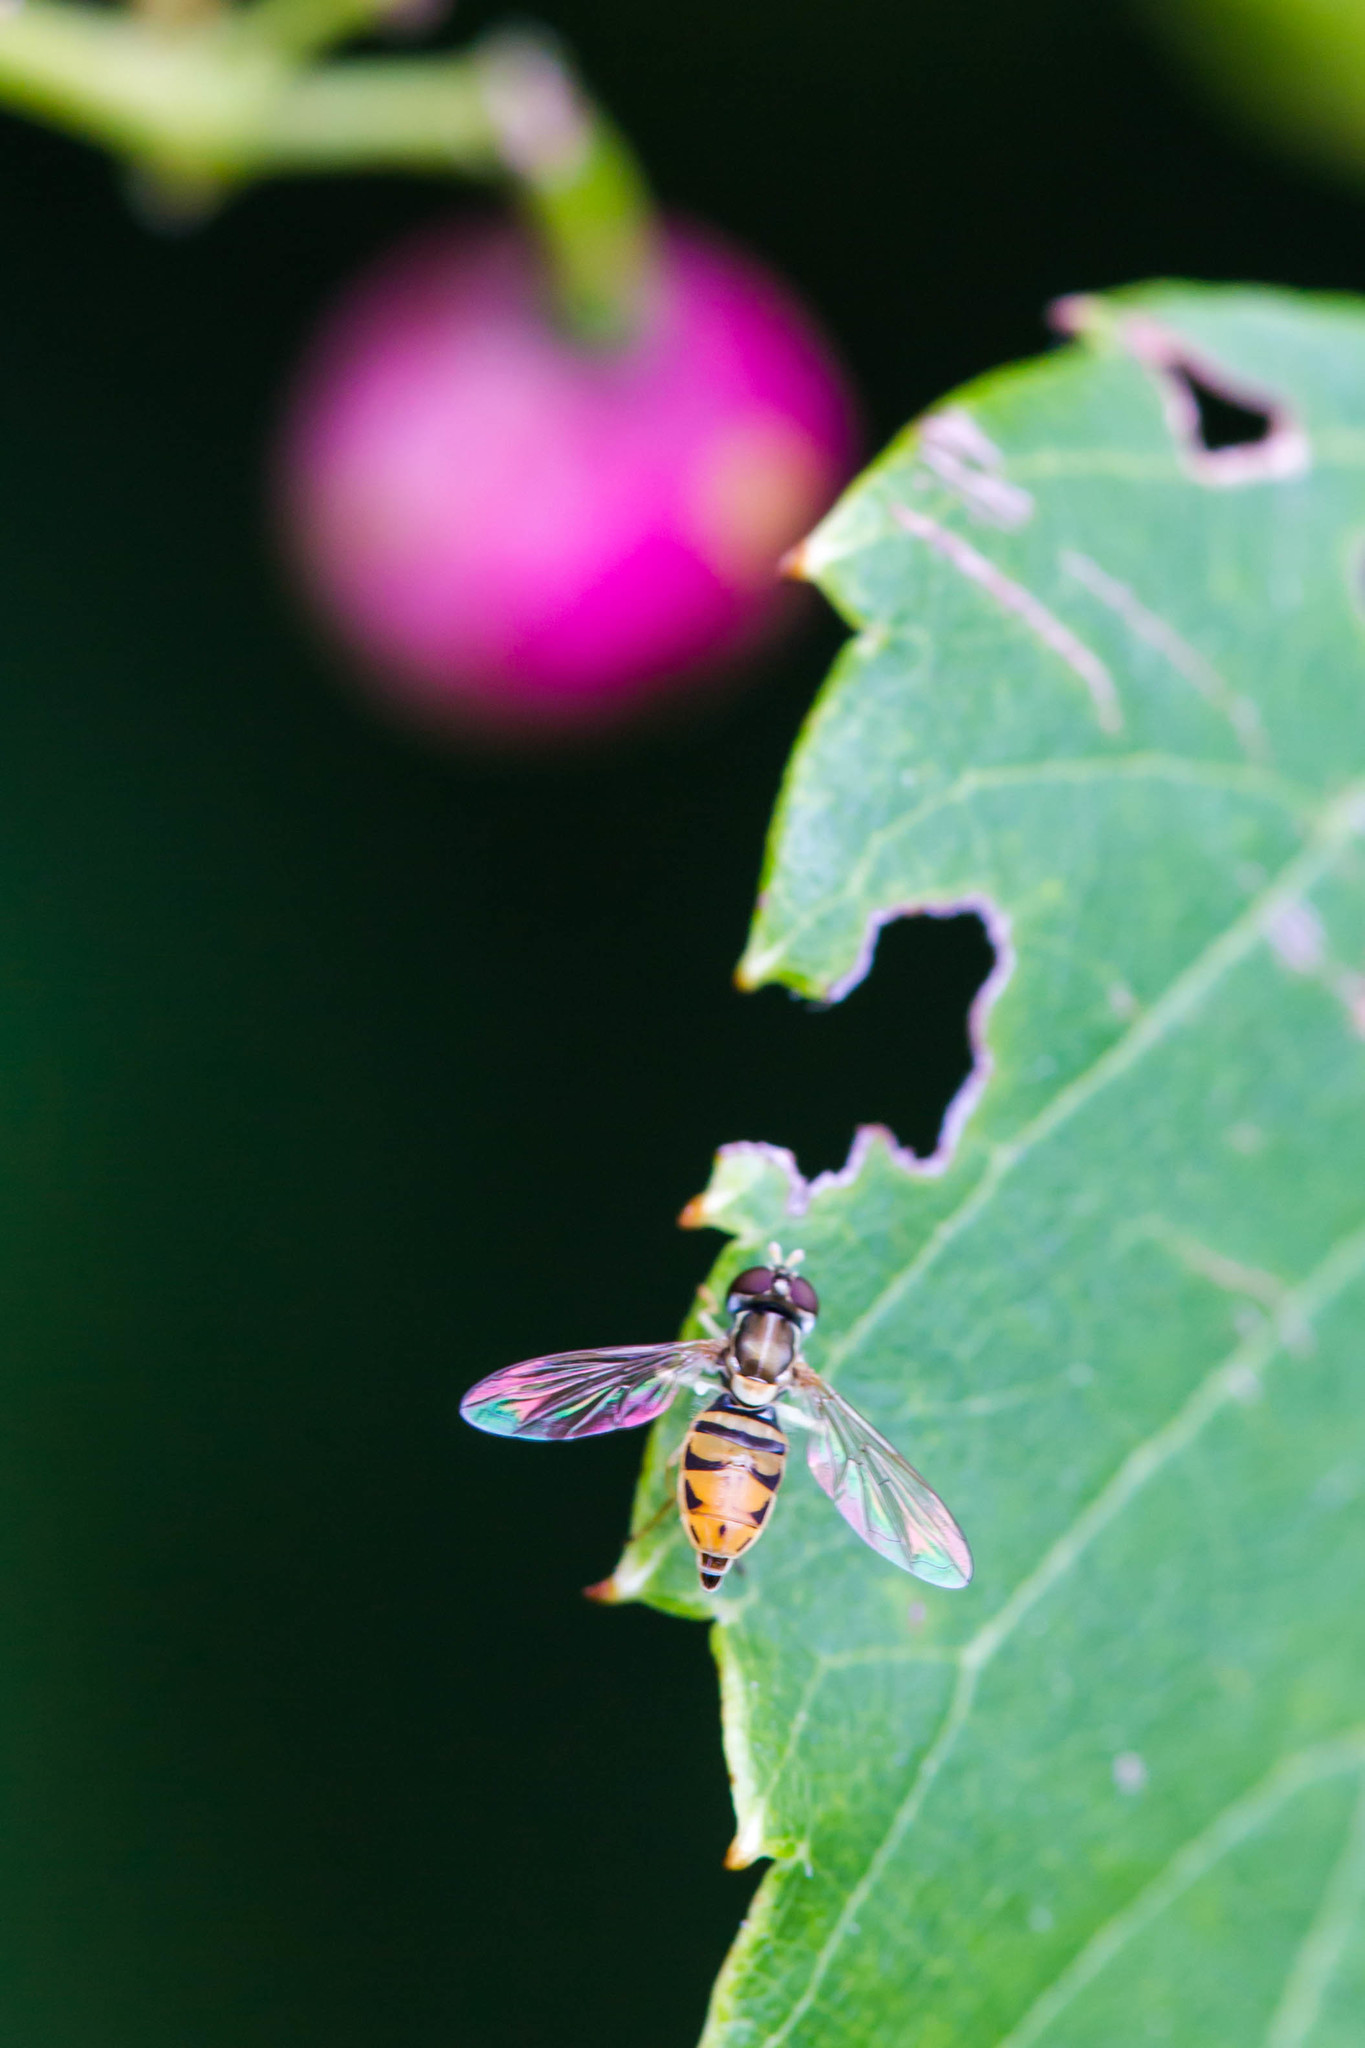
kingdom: Animalia
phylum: Arthropoda
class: Insecta
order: Diptera
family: Syrphidae
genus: Toxomerus
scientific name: Toxomerus marginatus
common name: Syrphid fly
